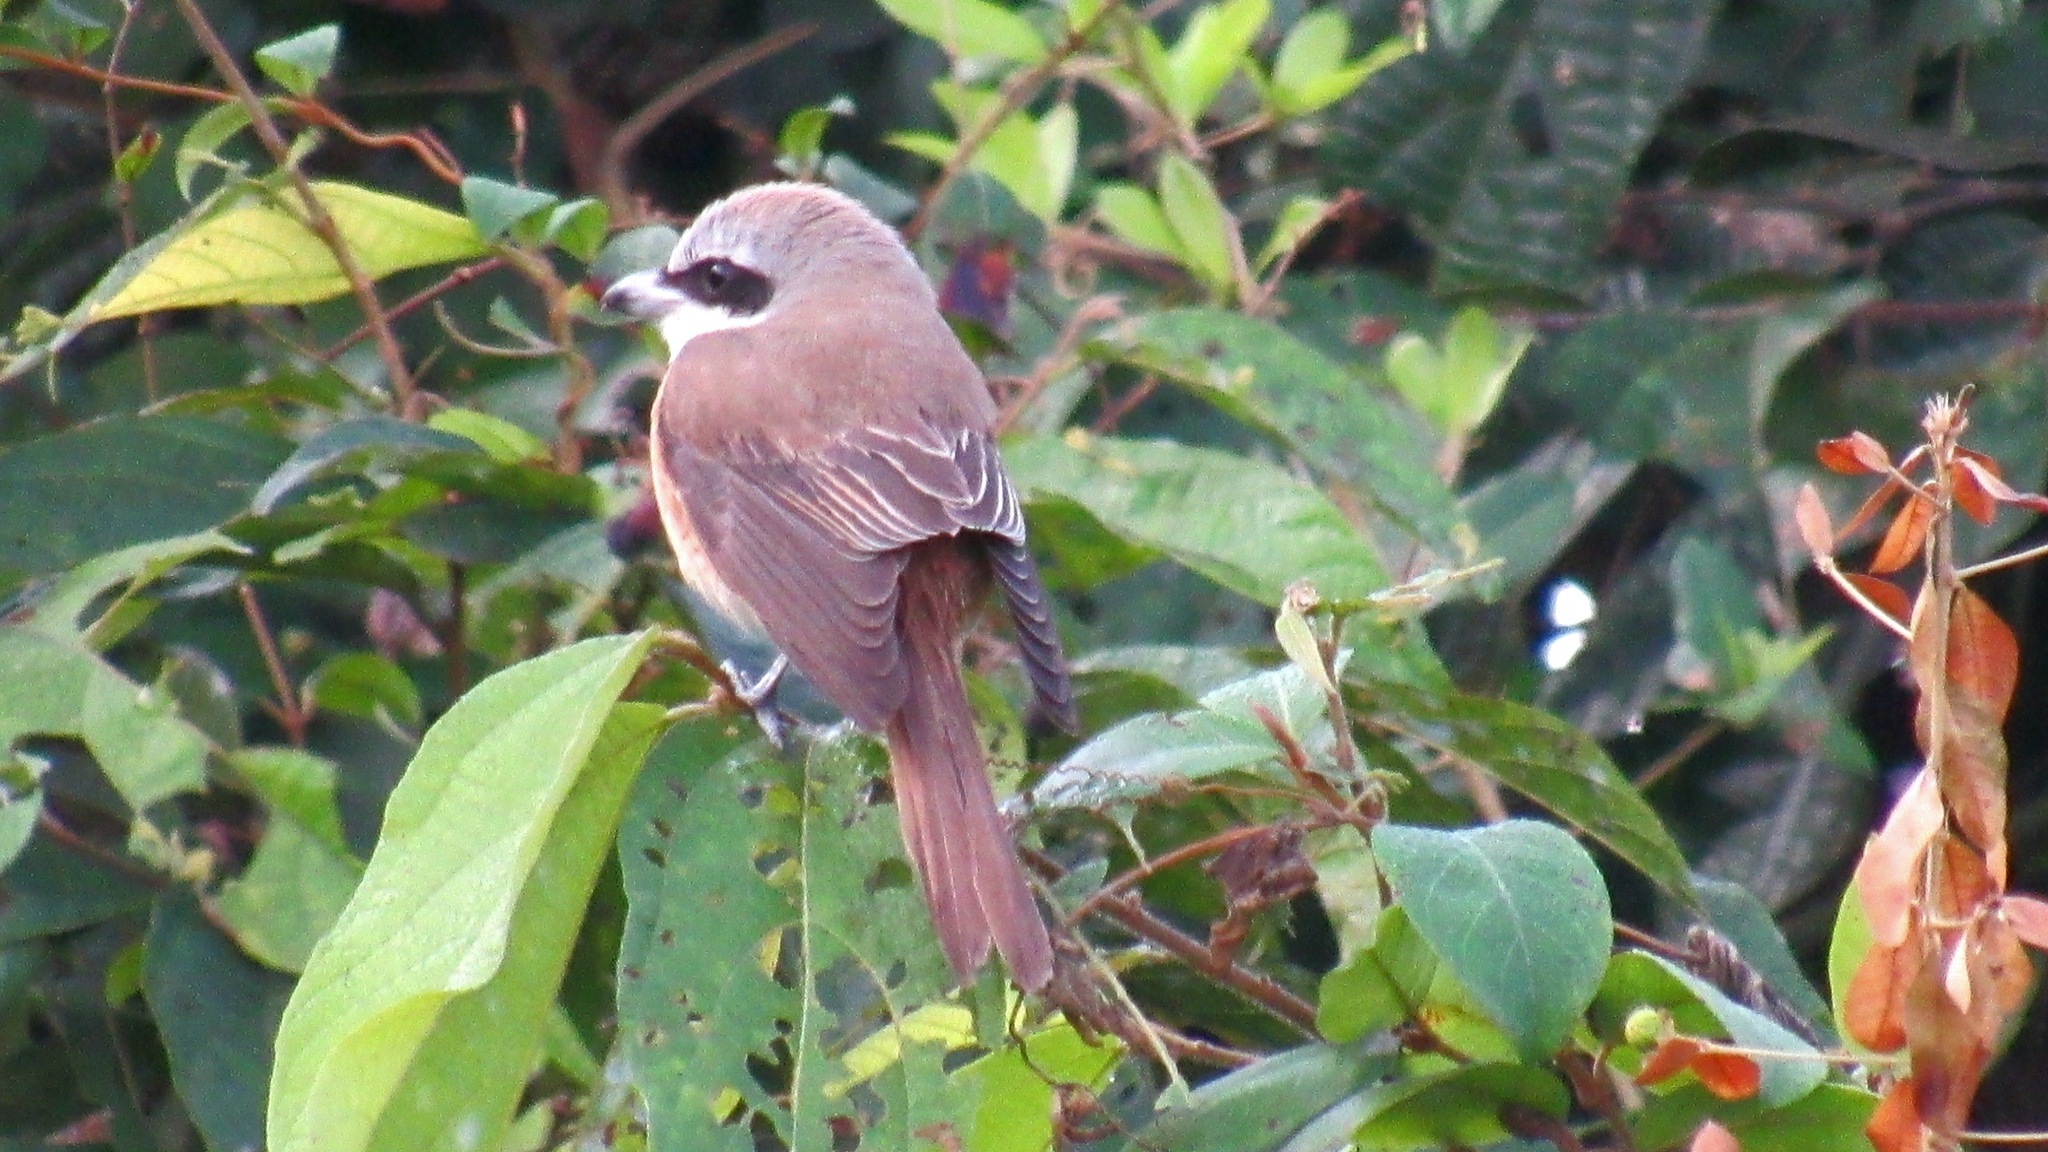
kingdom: Animalia
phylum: Chordata
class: Aves
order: Passeriformes
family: Laniidae
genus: Lanius
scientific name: Lanius cristatus
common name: Brown shrike
